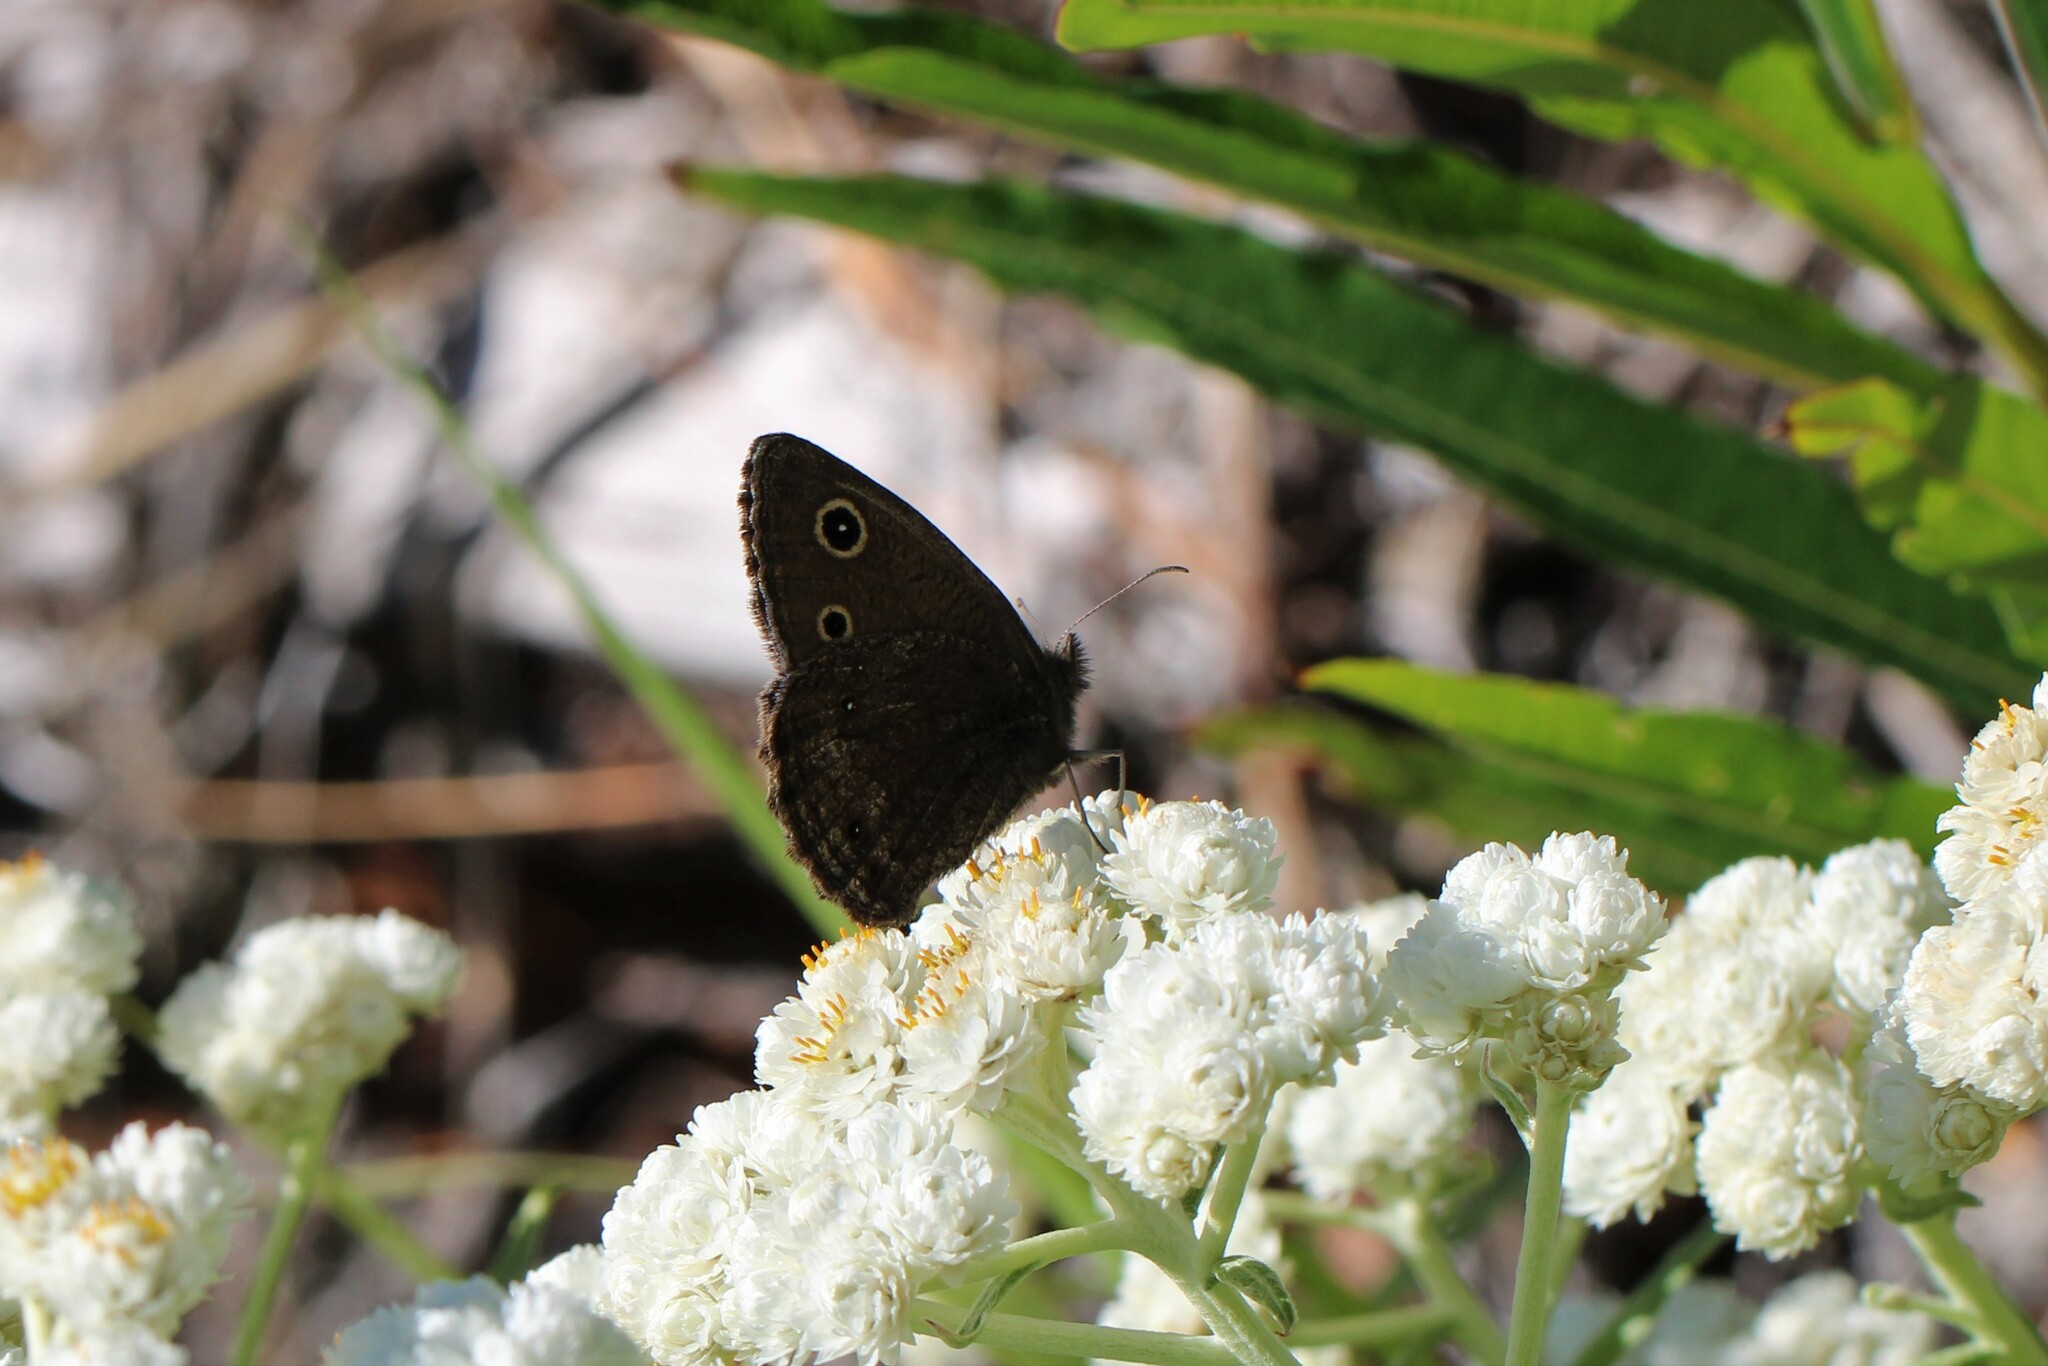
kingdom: Animalia
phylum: Arthropoda
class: Insecta
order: Lepidoptera
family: Nymphalidae
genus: Cercyonis
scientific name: Cercyonis oetus
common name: Small wood-nymph
